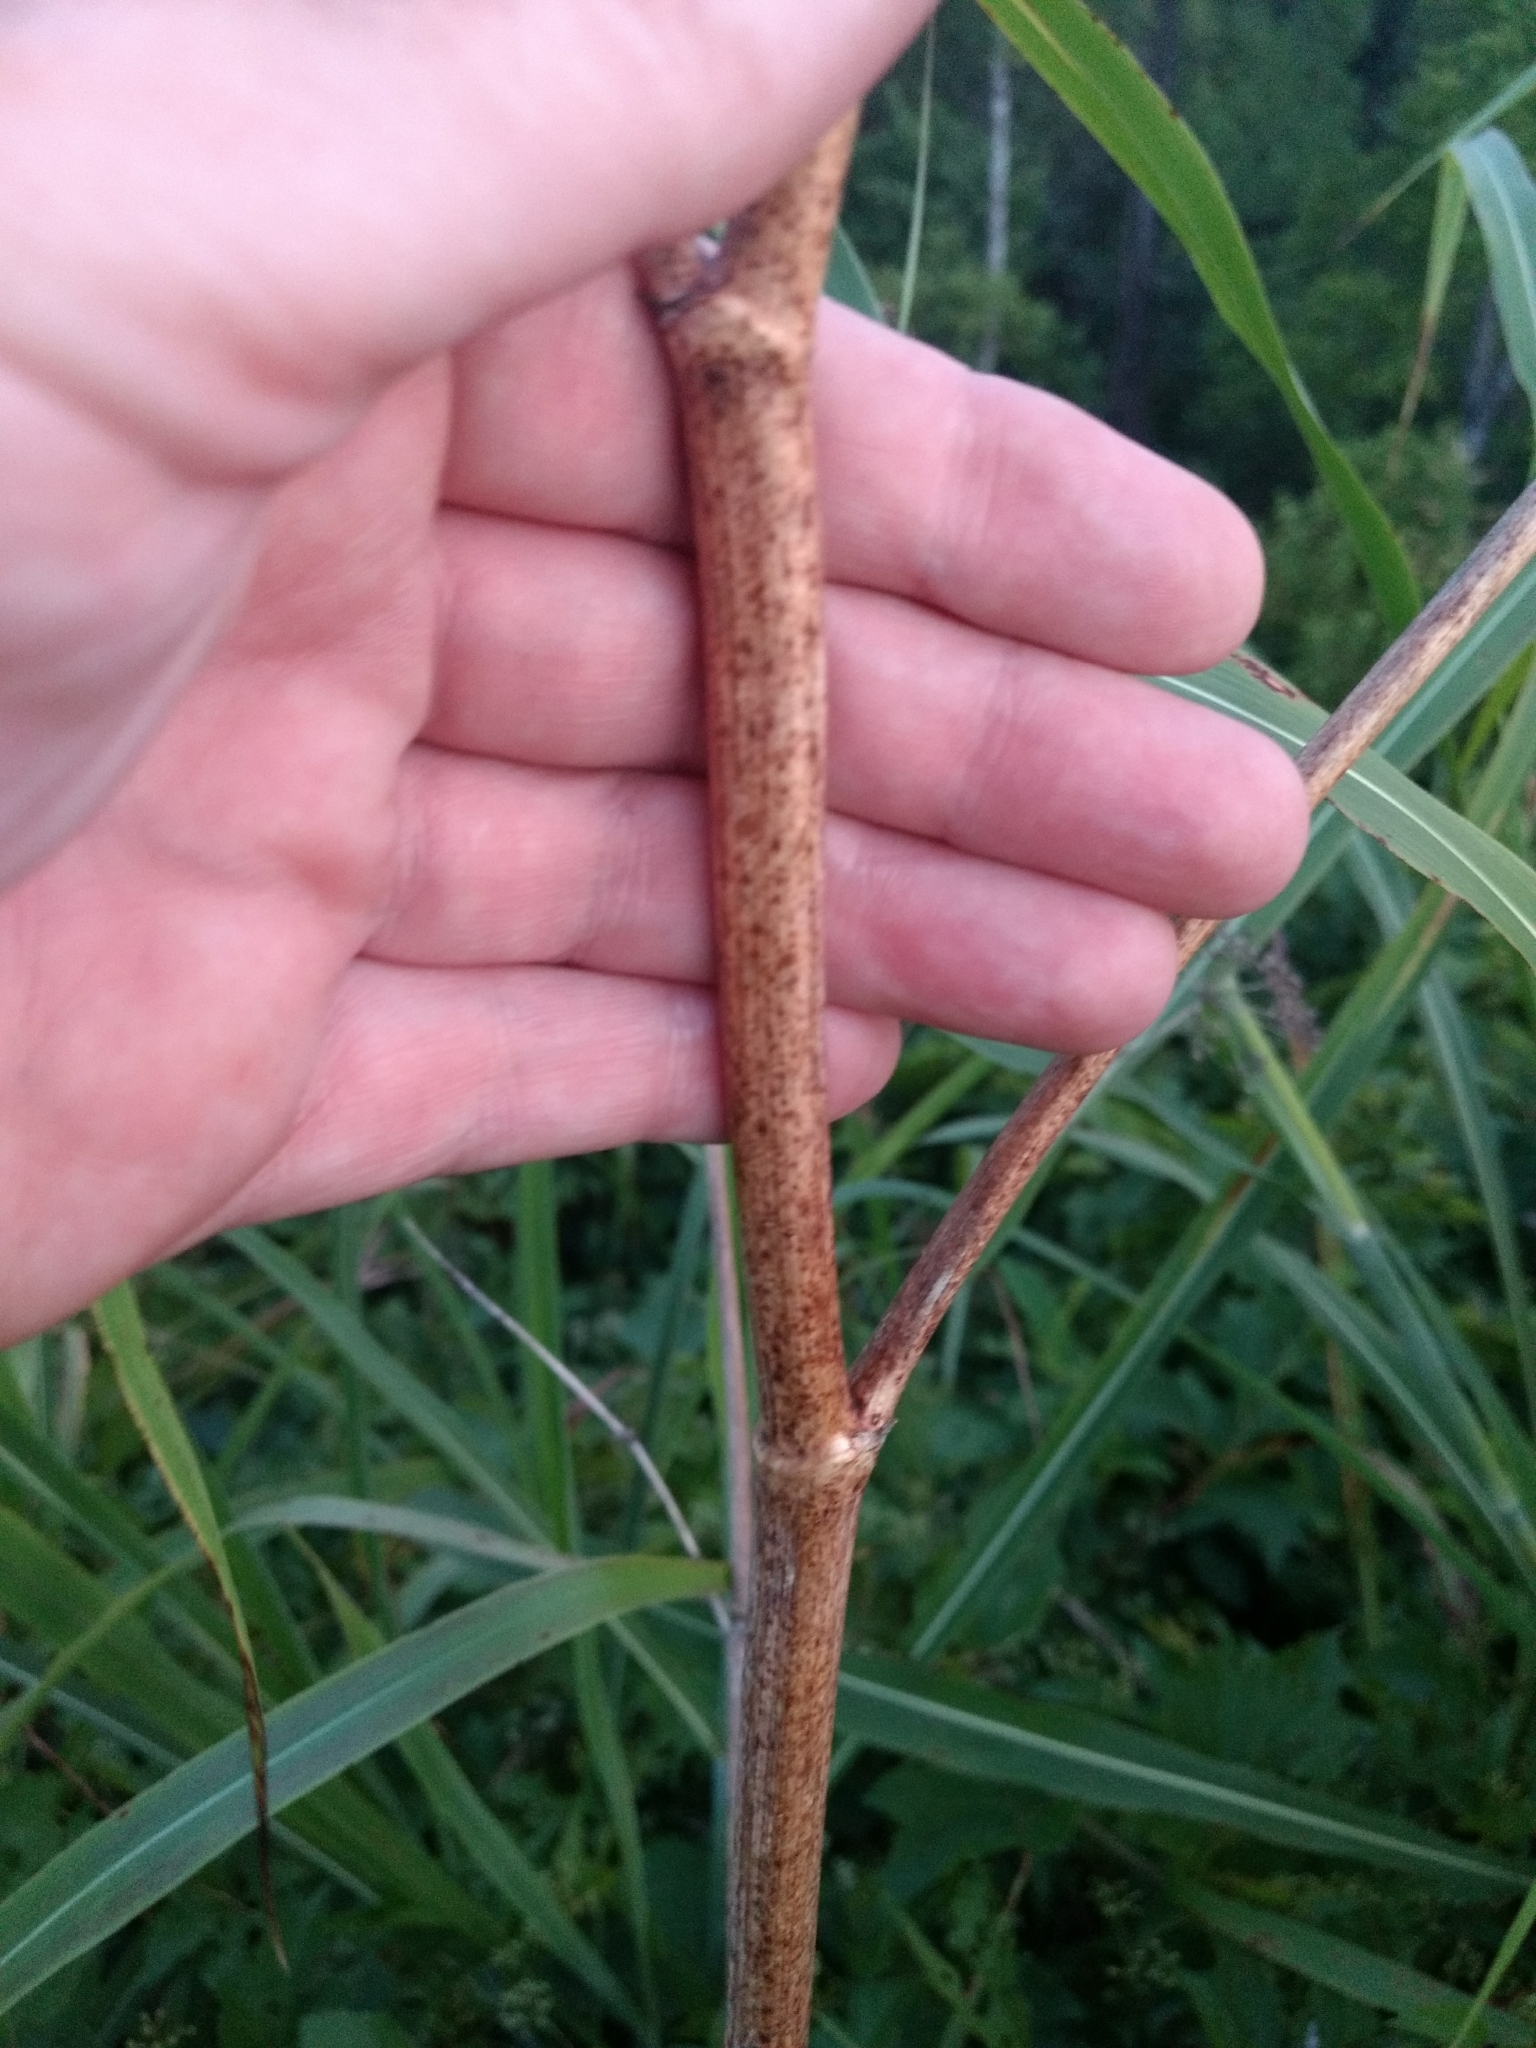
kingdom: Plantae
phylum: Tracheophyta
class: Magnoliopsida
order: Apiales
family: Apiaceae
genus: Conium
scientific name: Conium maculatum
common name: Hemlock
